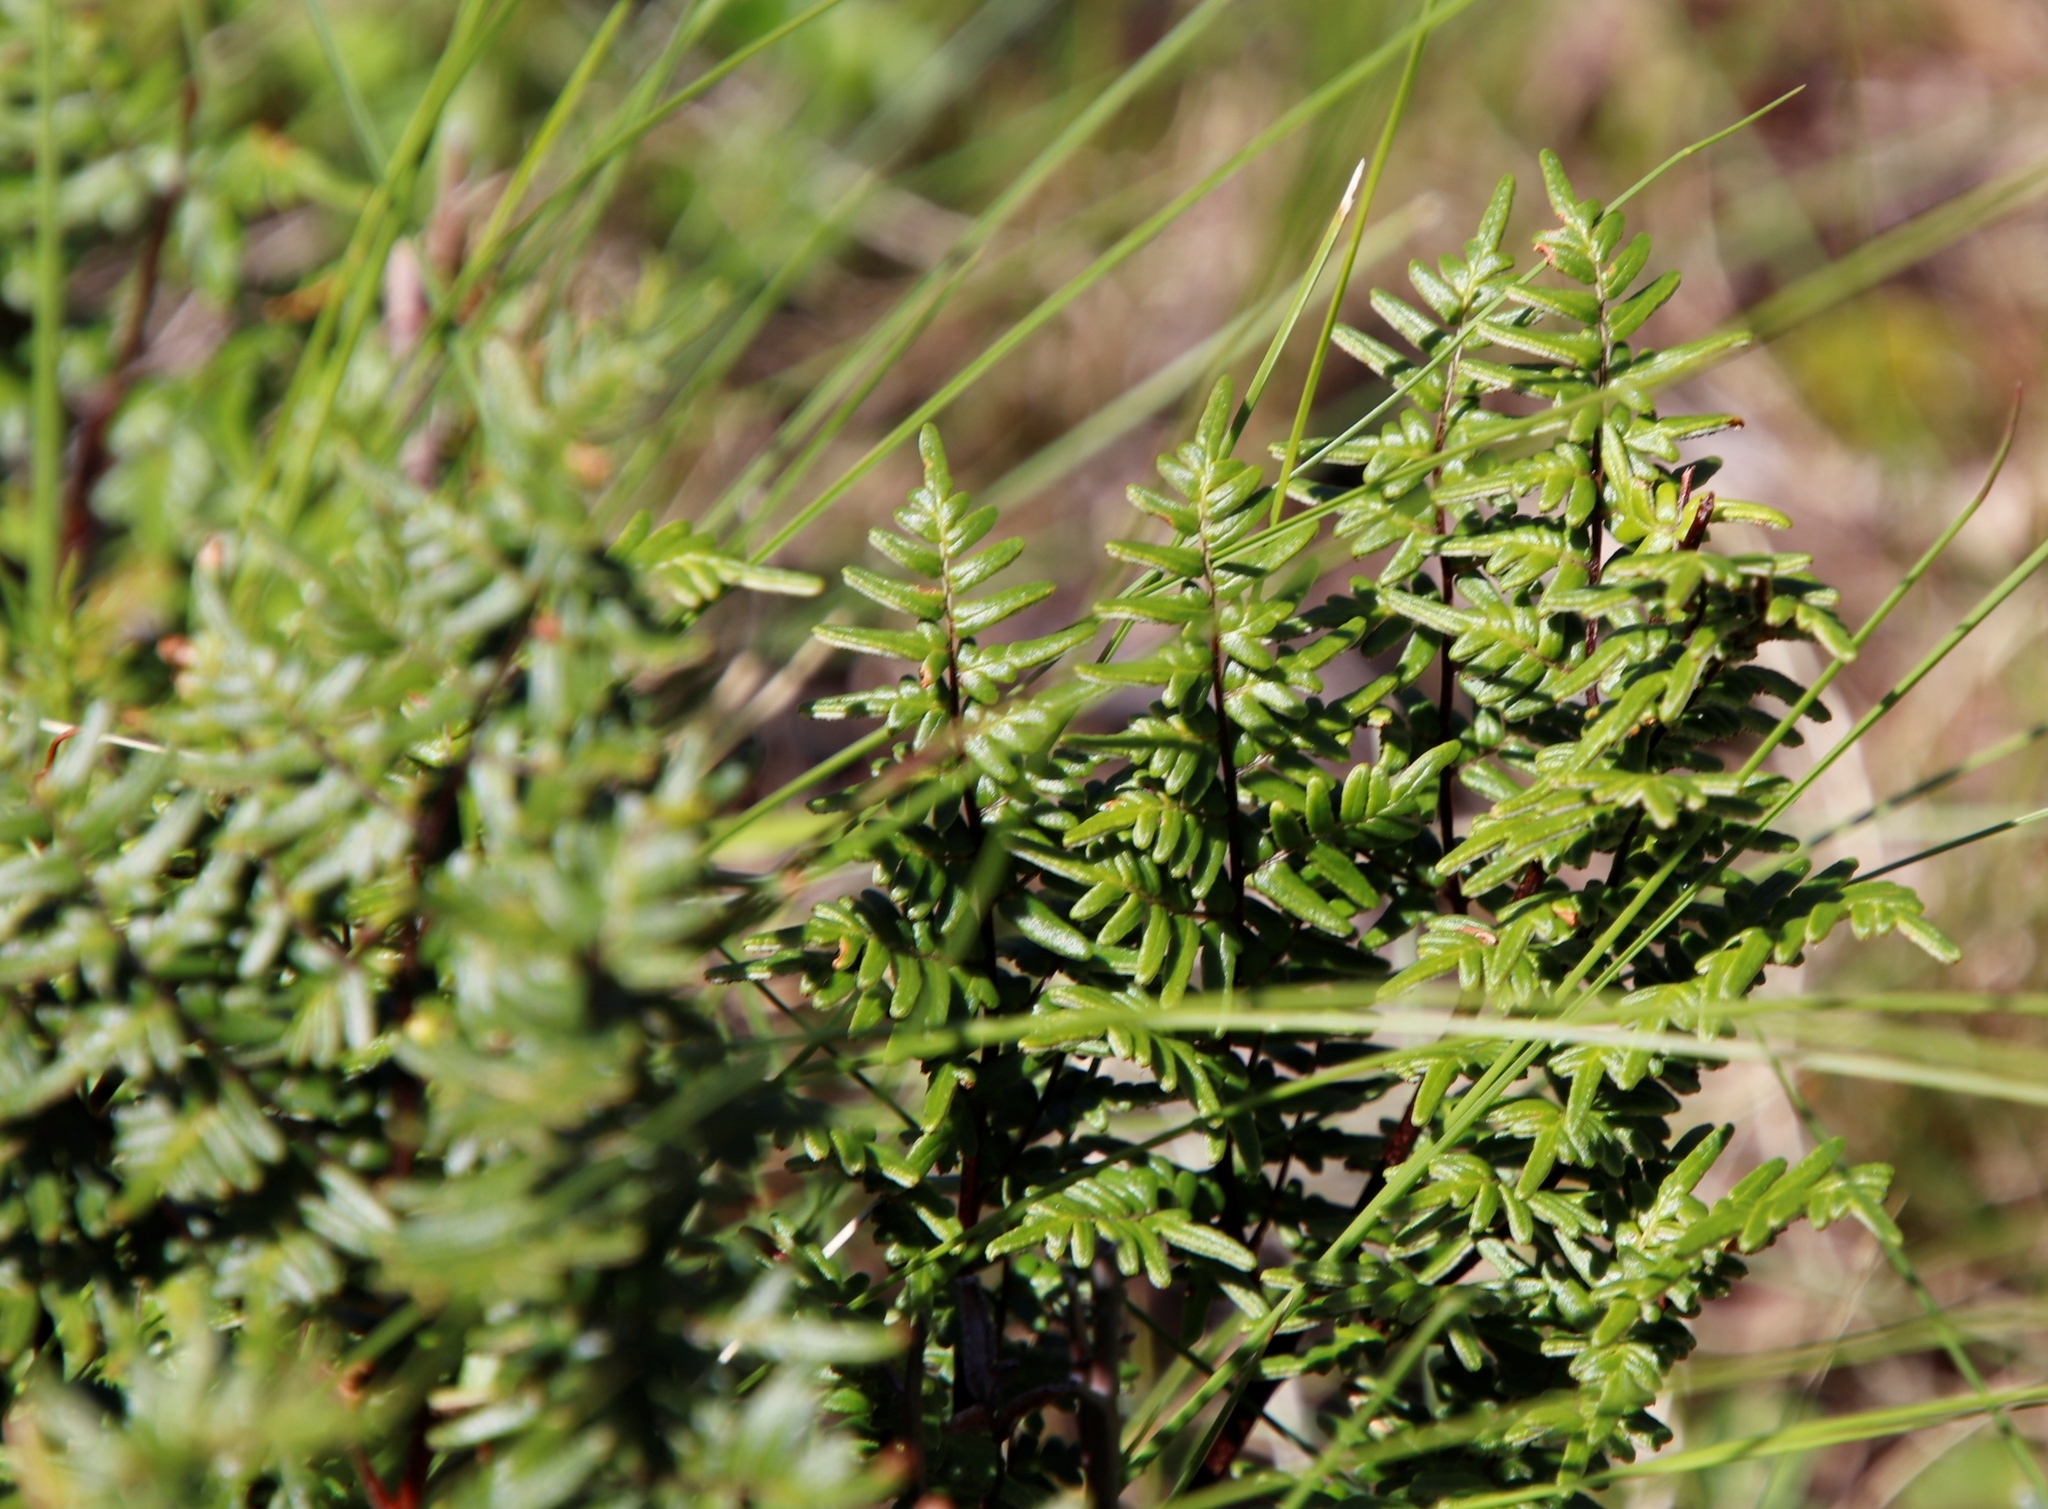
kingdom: Plantae
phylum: Tracheophyta
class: Polypodiopsida
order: Polypodiales
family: Pteridaceae
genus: Cheilanthes
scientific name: Cheilanthes quadripinnata
